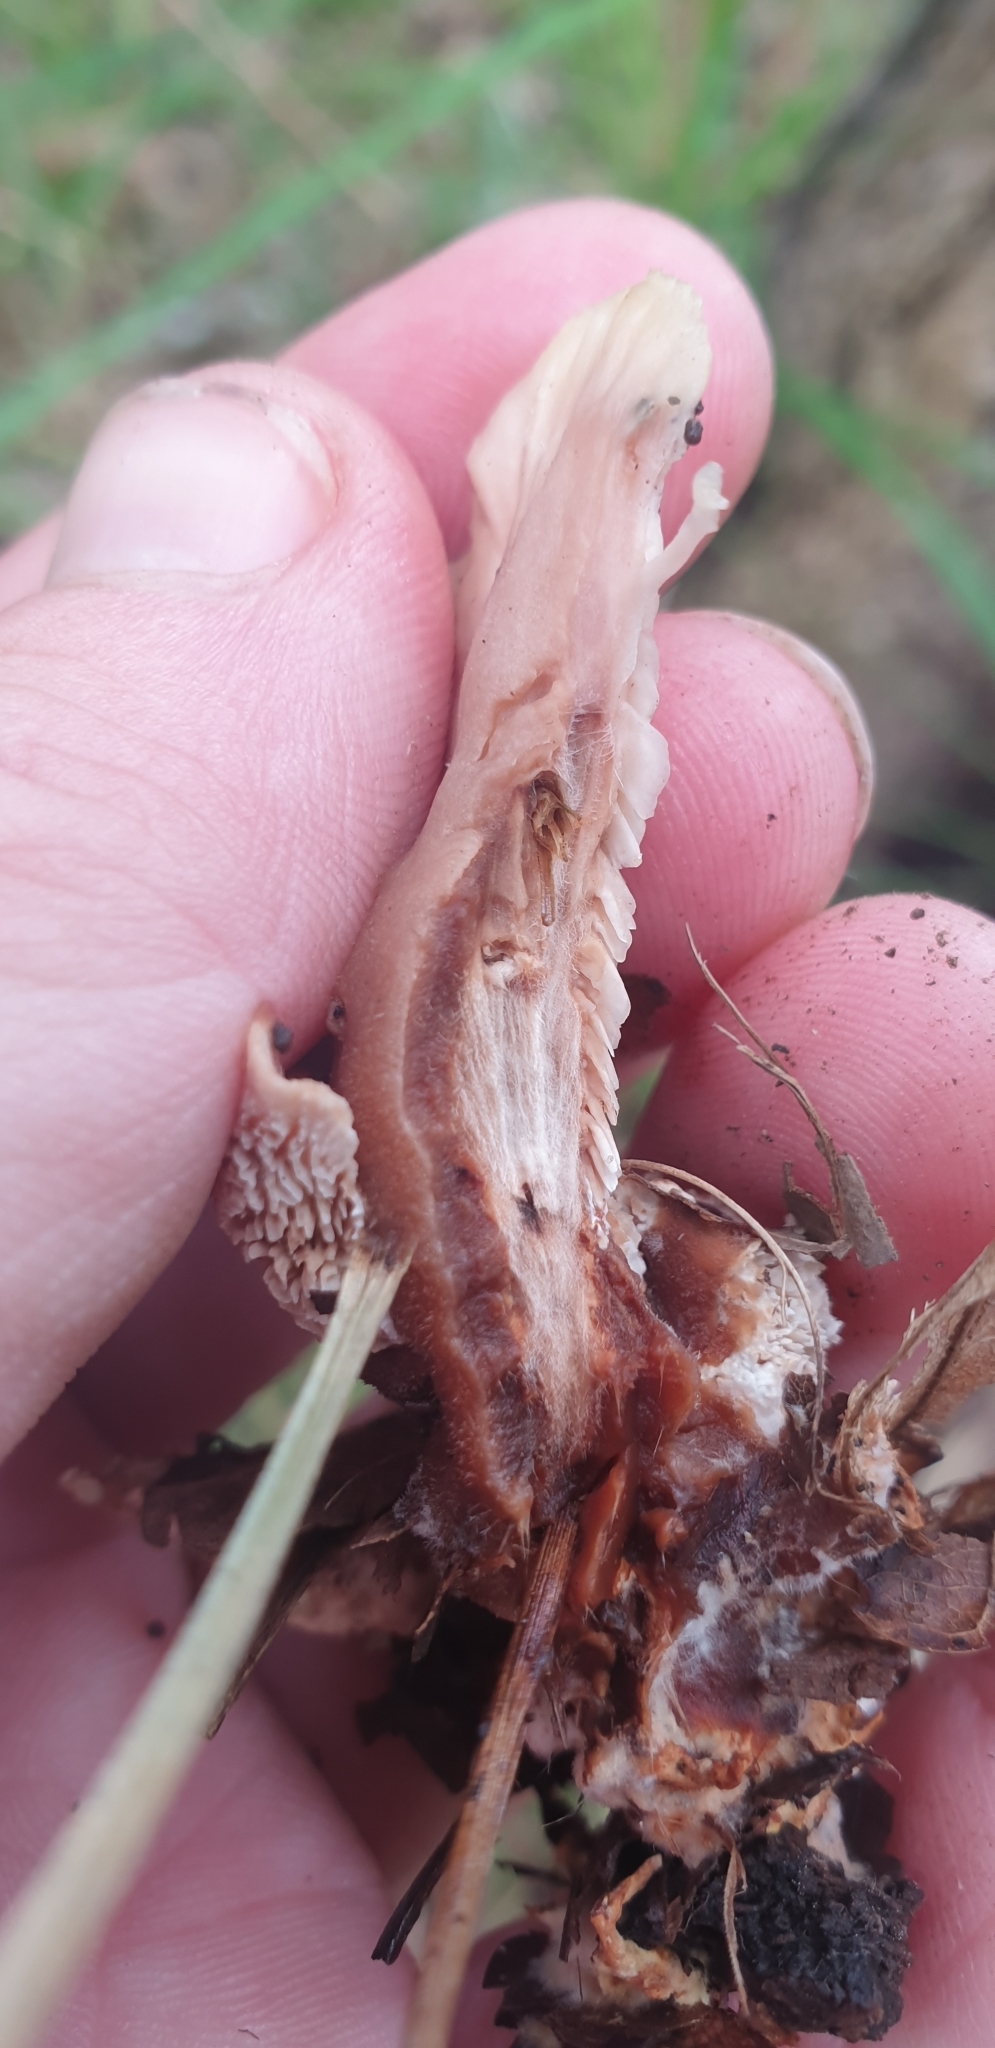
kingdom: Fungi
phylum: Basidiomycota
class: Agaricomycetes
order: Polyporales
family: Podoscyphaceae
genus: Abortiporus
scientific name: Abortiporus biennis
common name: Blushing rosette
